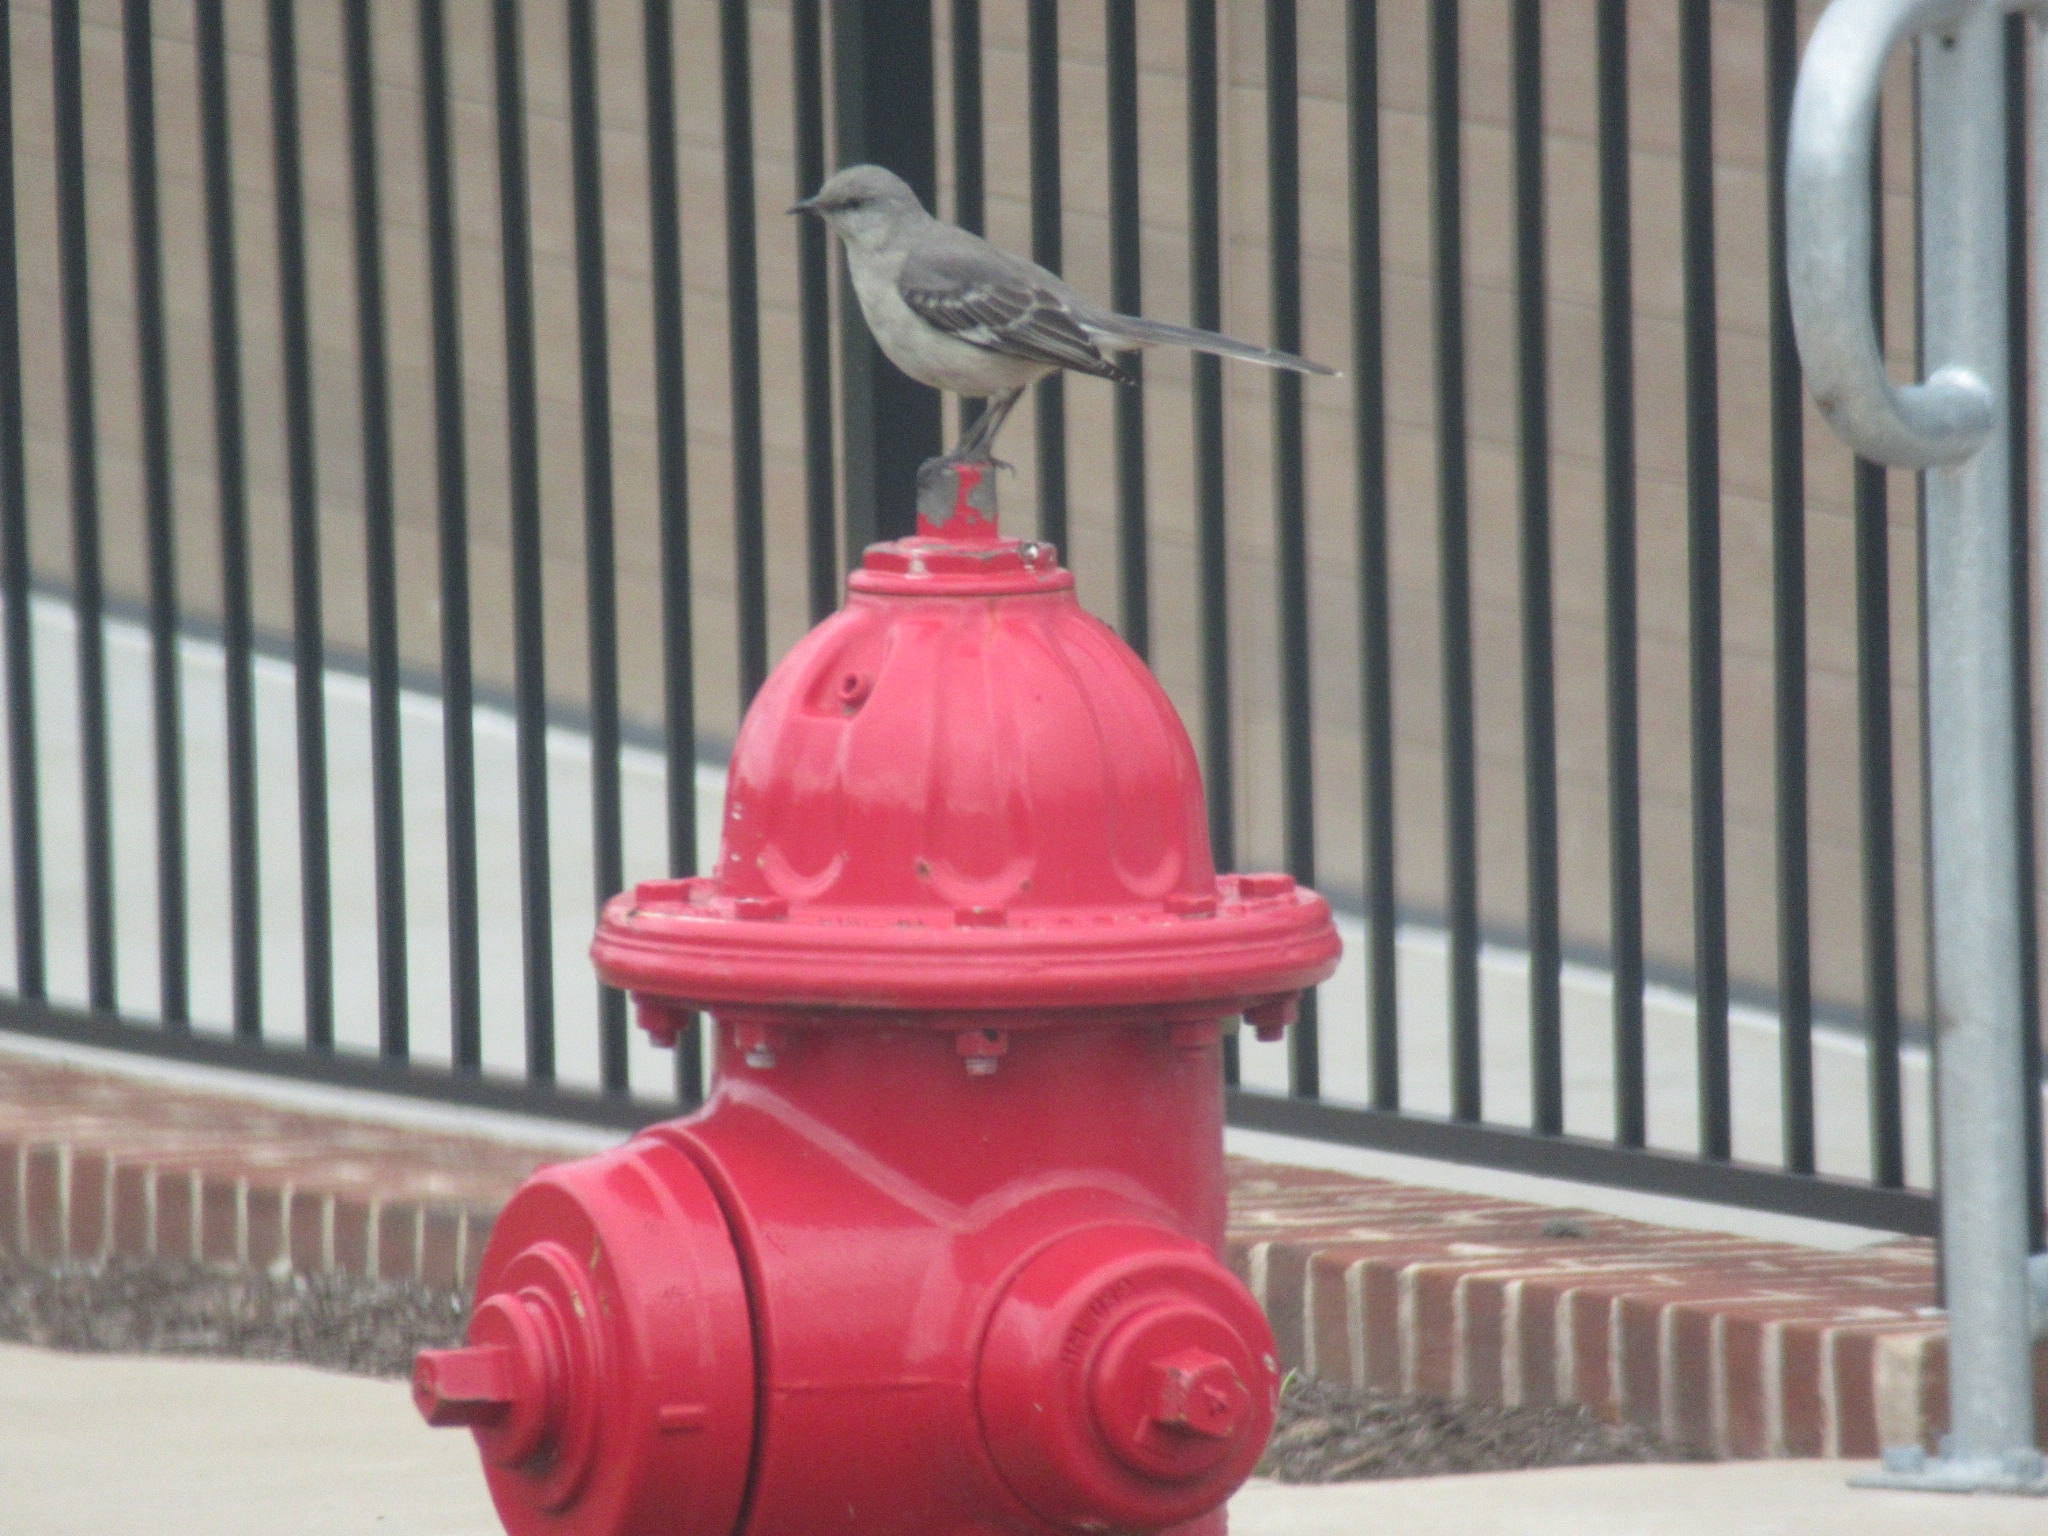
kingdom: Animalia
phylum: Chordata
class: Aves
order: Passeriformes
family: Mimidae
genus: Mimus
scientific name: Mimus polyglottos
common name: Northern mockingbird
